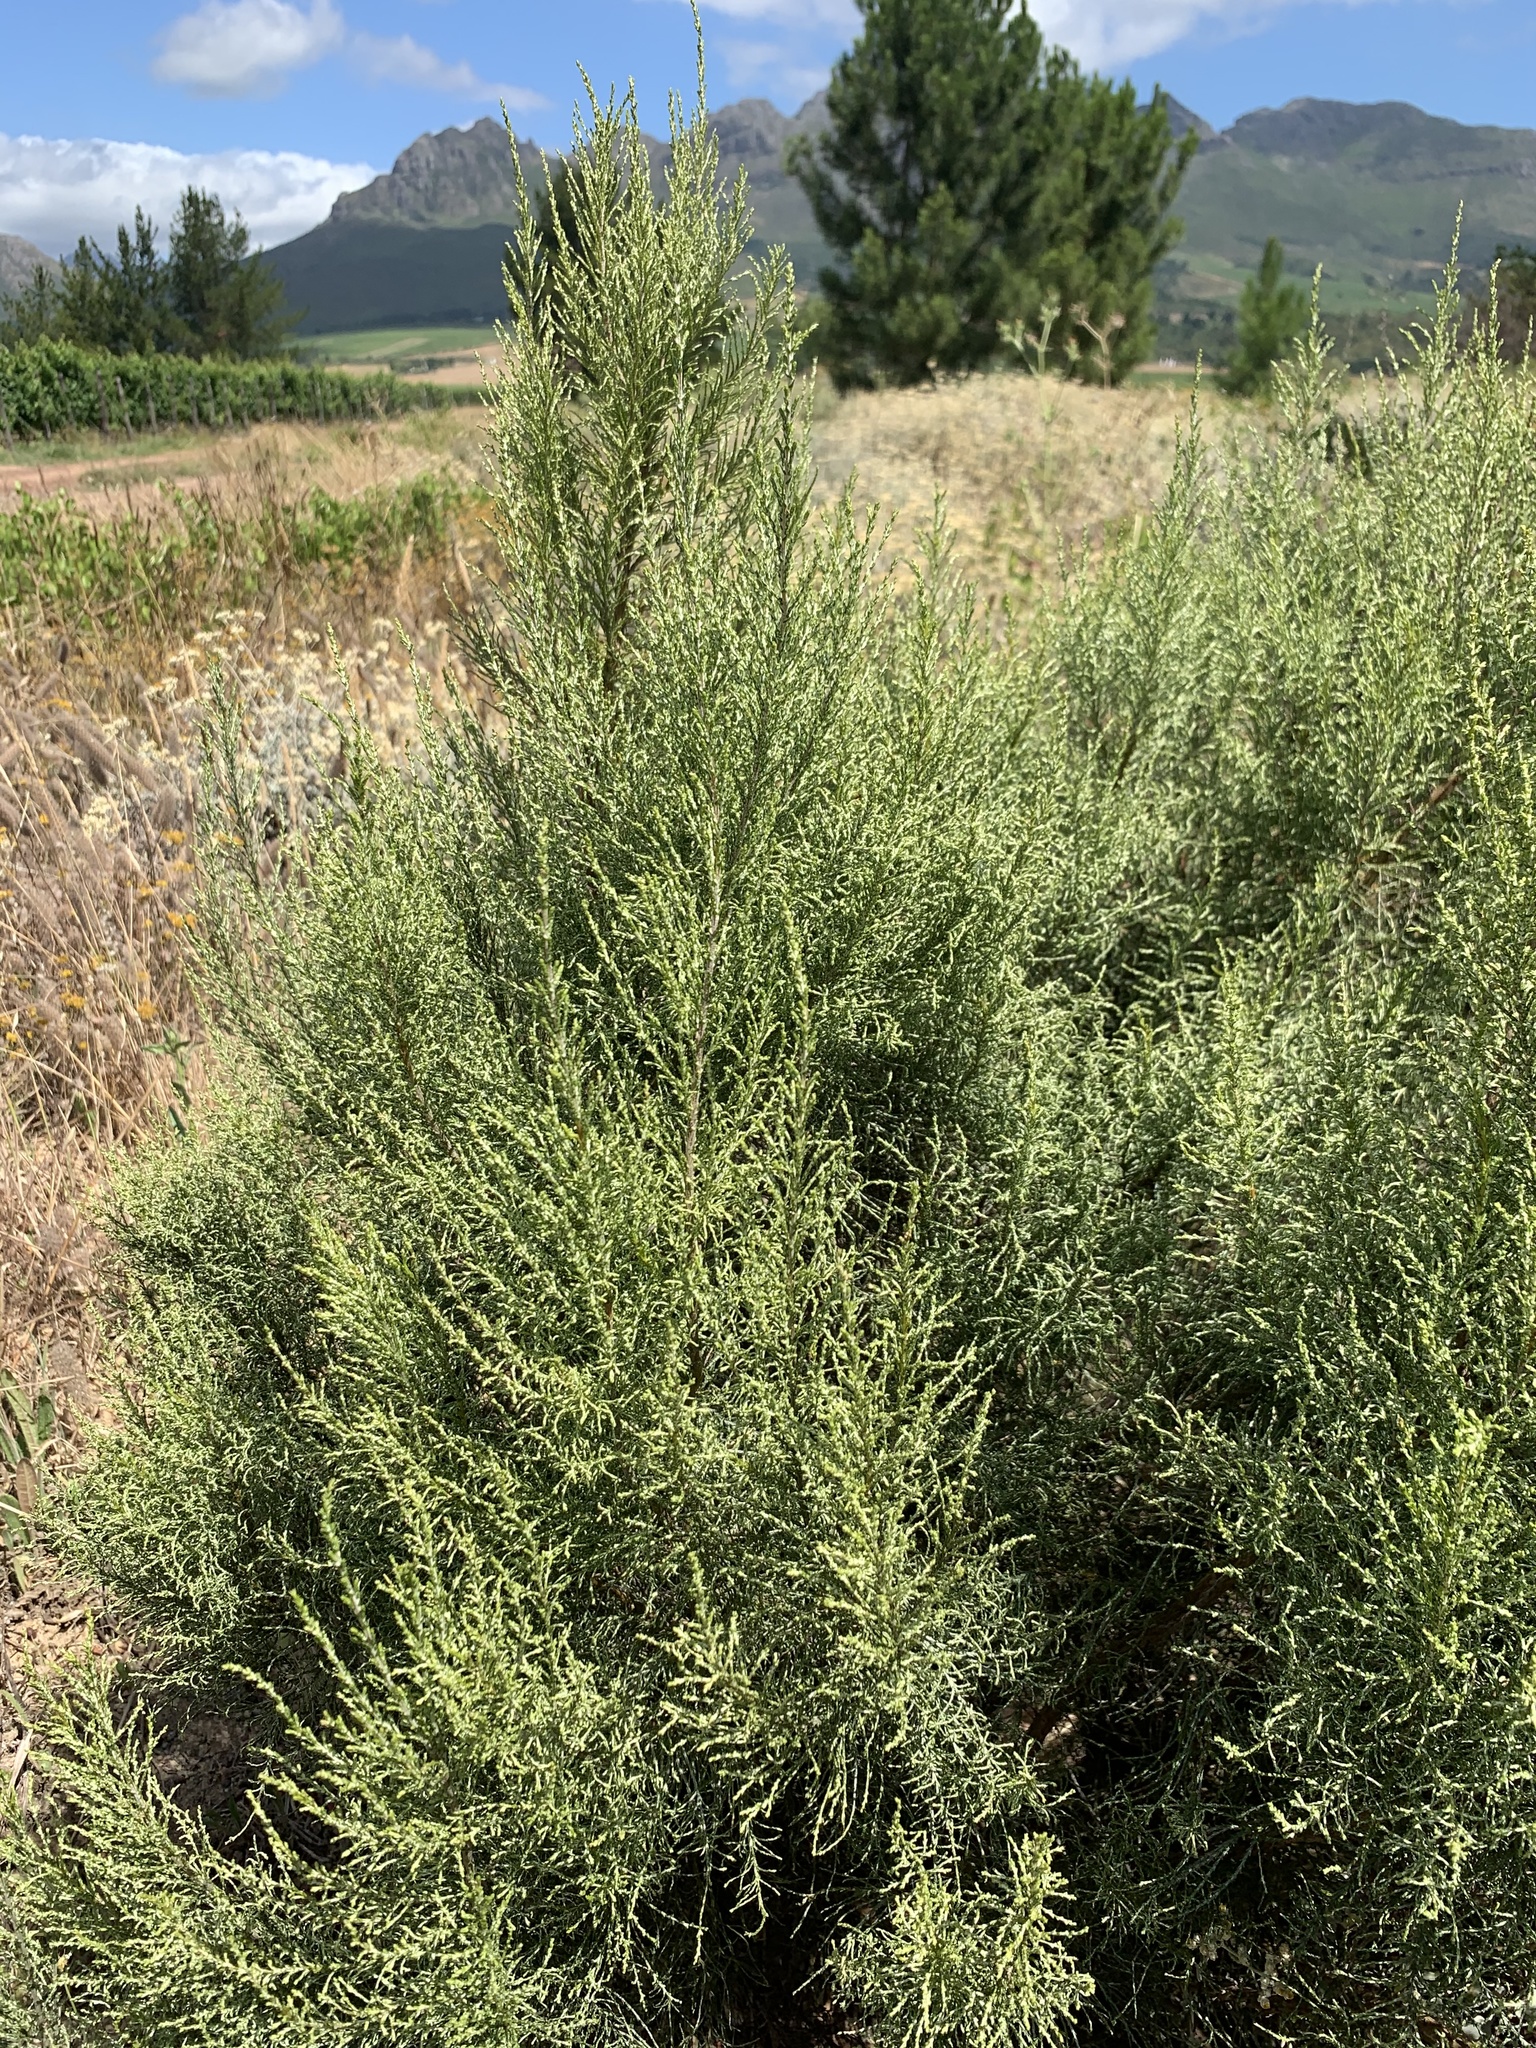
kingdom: Plantae
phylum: Tracheophyta
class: Magnoliopsida
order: Asterales
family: Asteraceae
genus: Dicerothamnus
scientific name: Dicerothamnus rhinocerotis
